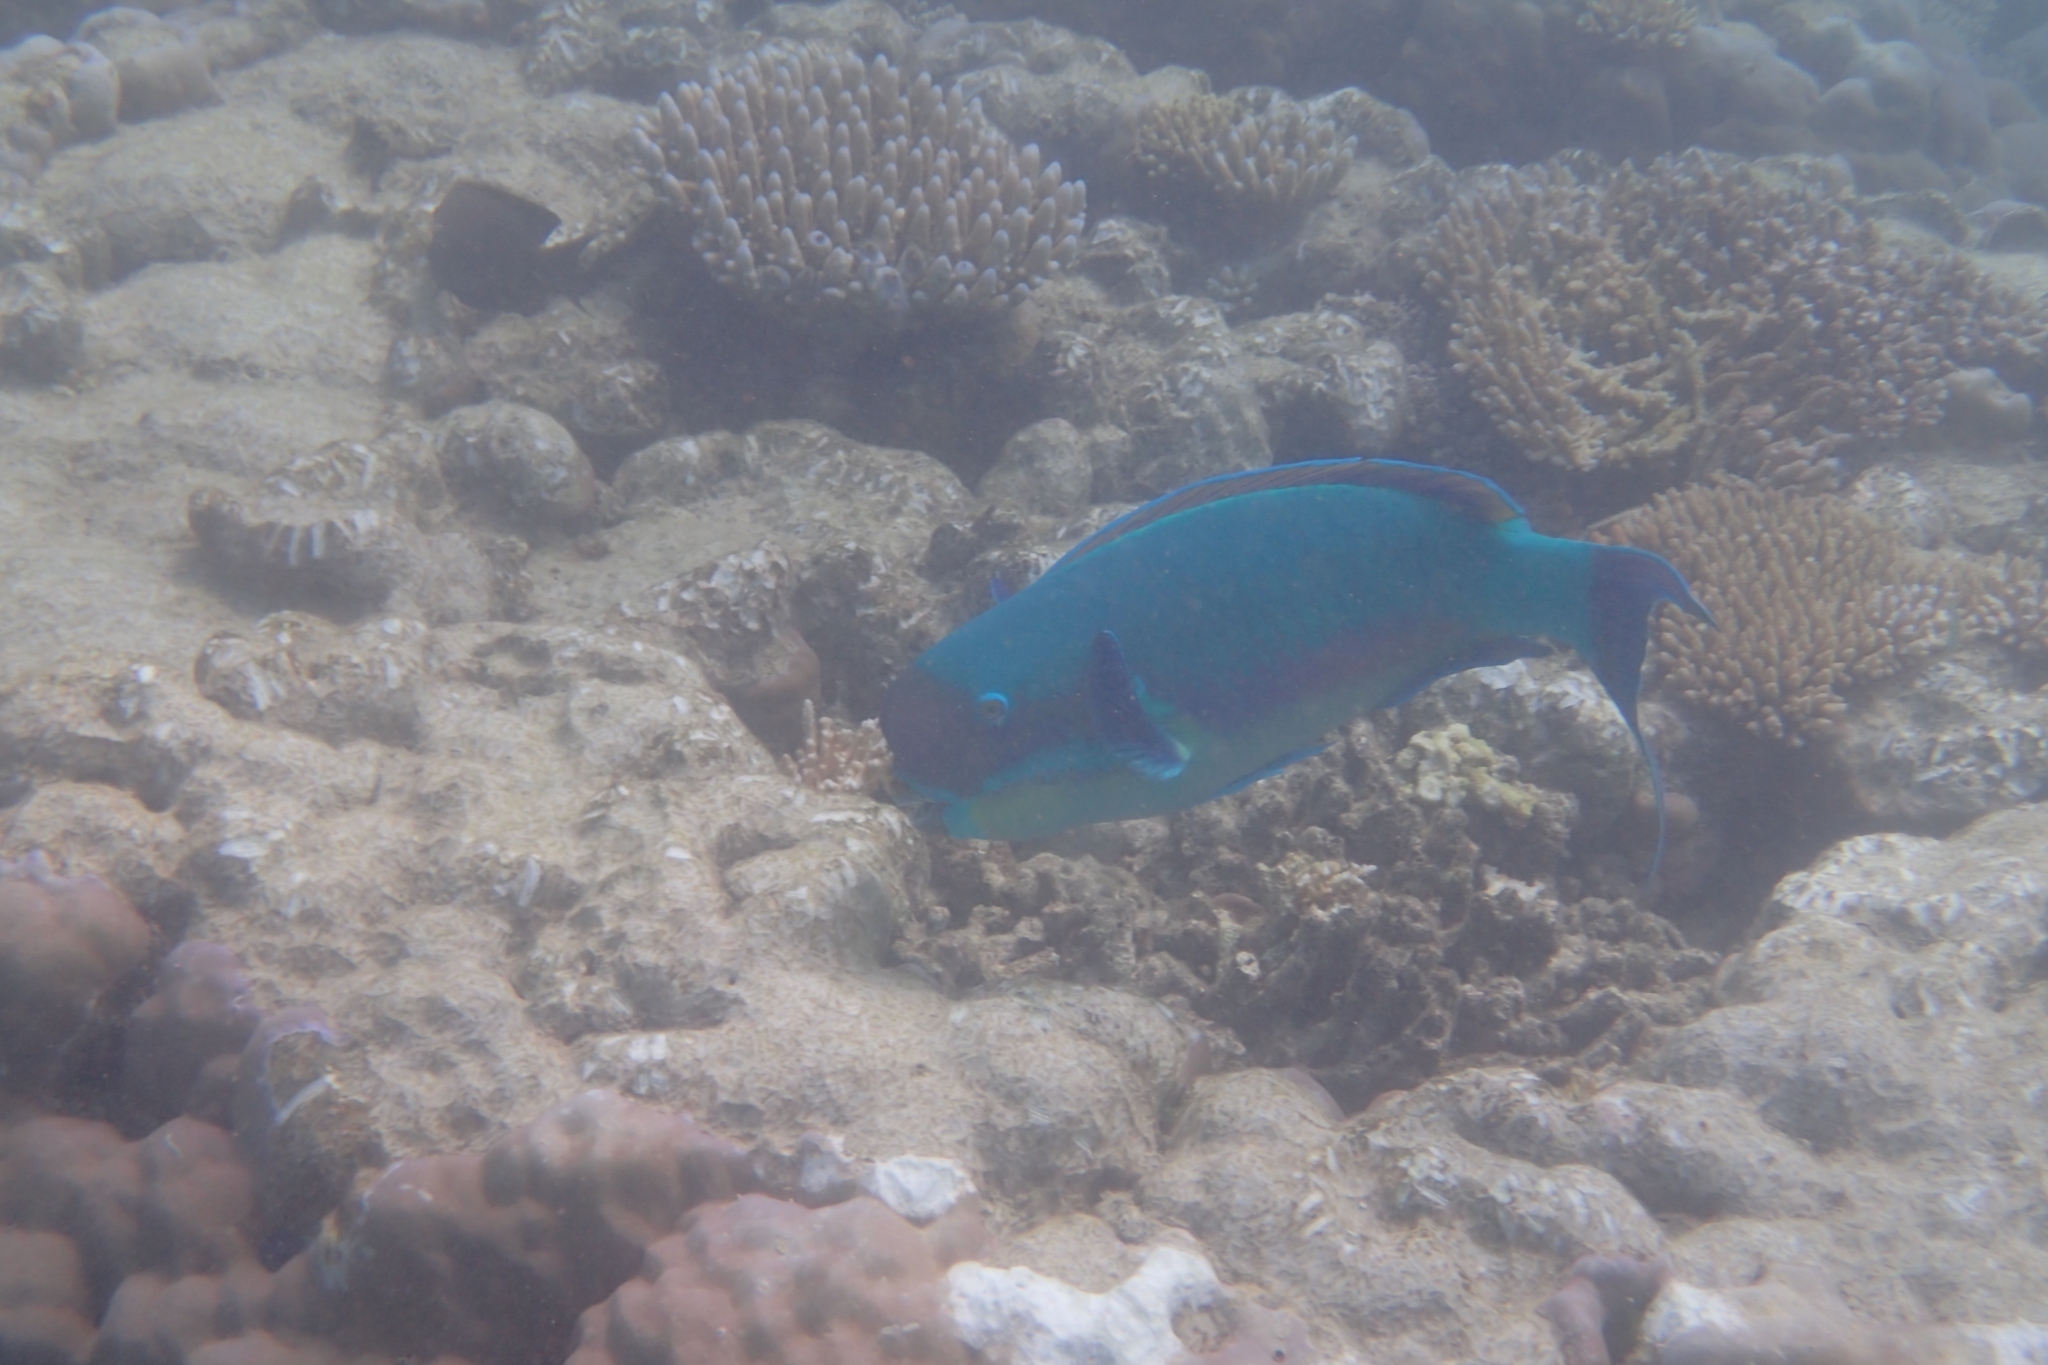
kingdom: Animalia
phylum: Chordata
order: Perciformes
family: Scaridae
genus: Chlorurus
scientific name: Chlorurus microrhinos
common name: Steephead parrotfish
